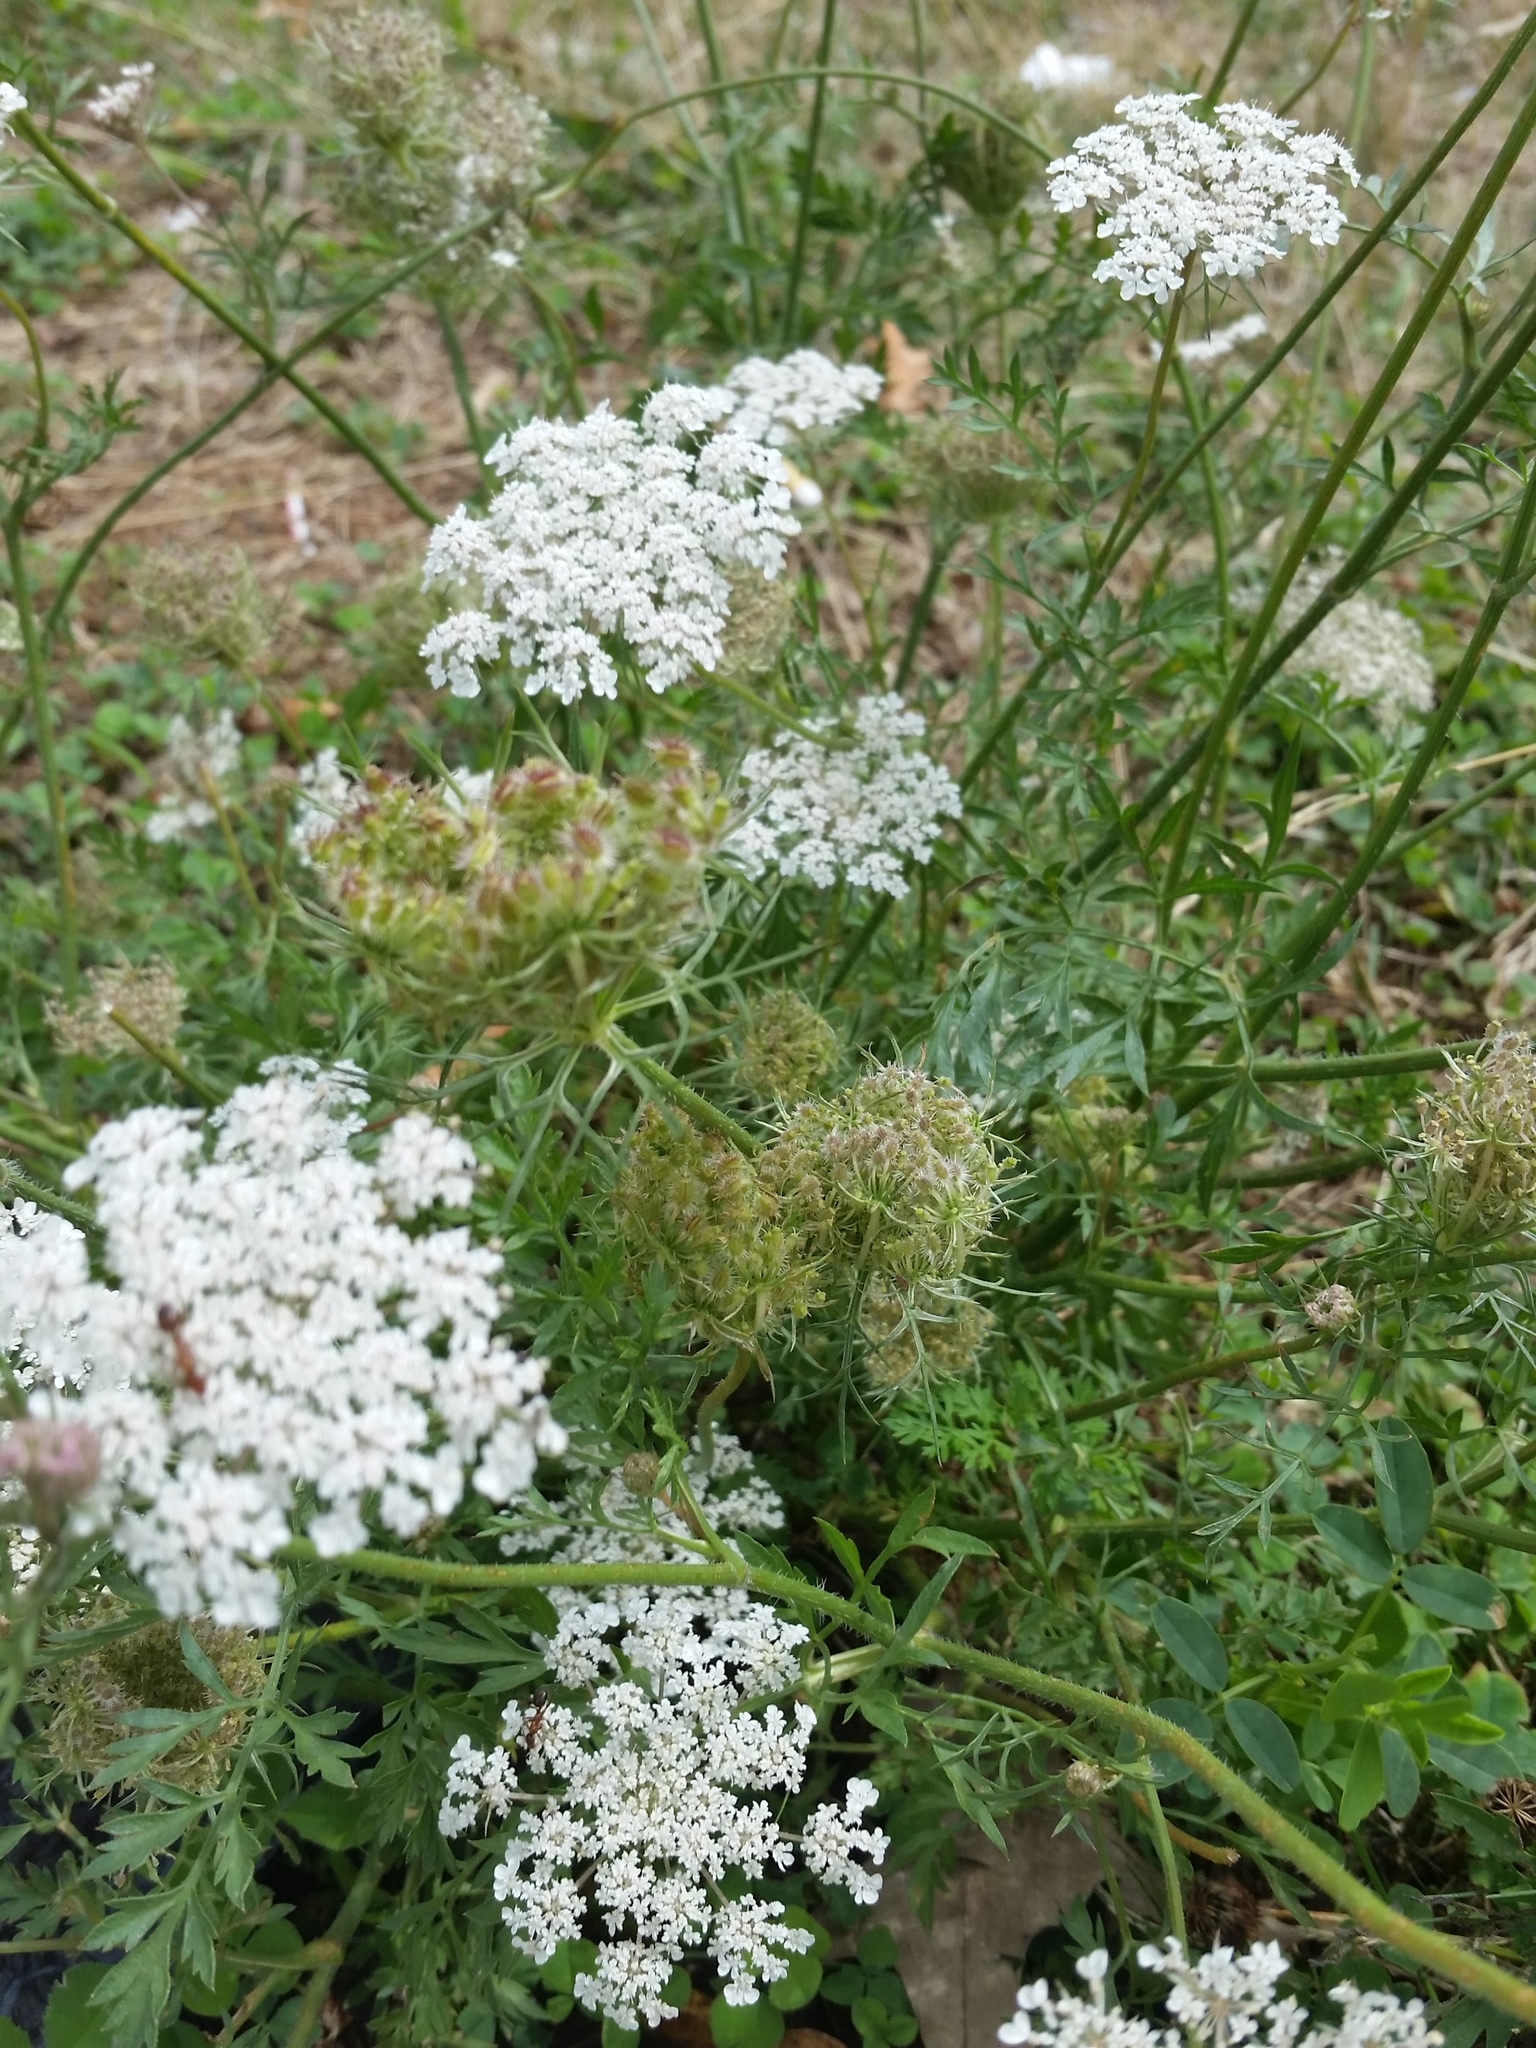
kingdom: Plantae
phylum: Tracheophyta
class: Magnoliopsida
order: Apiales
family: Apiaceae
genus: Daucus
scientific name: Daucus carota
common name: Wild carrot
